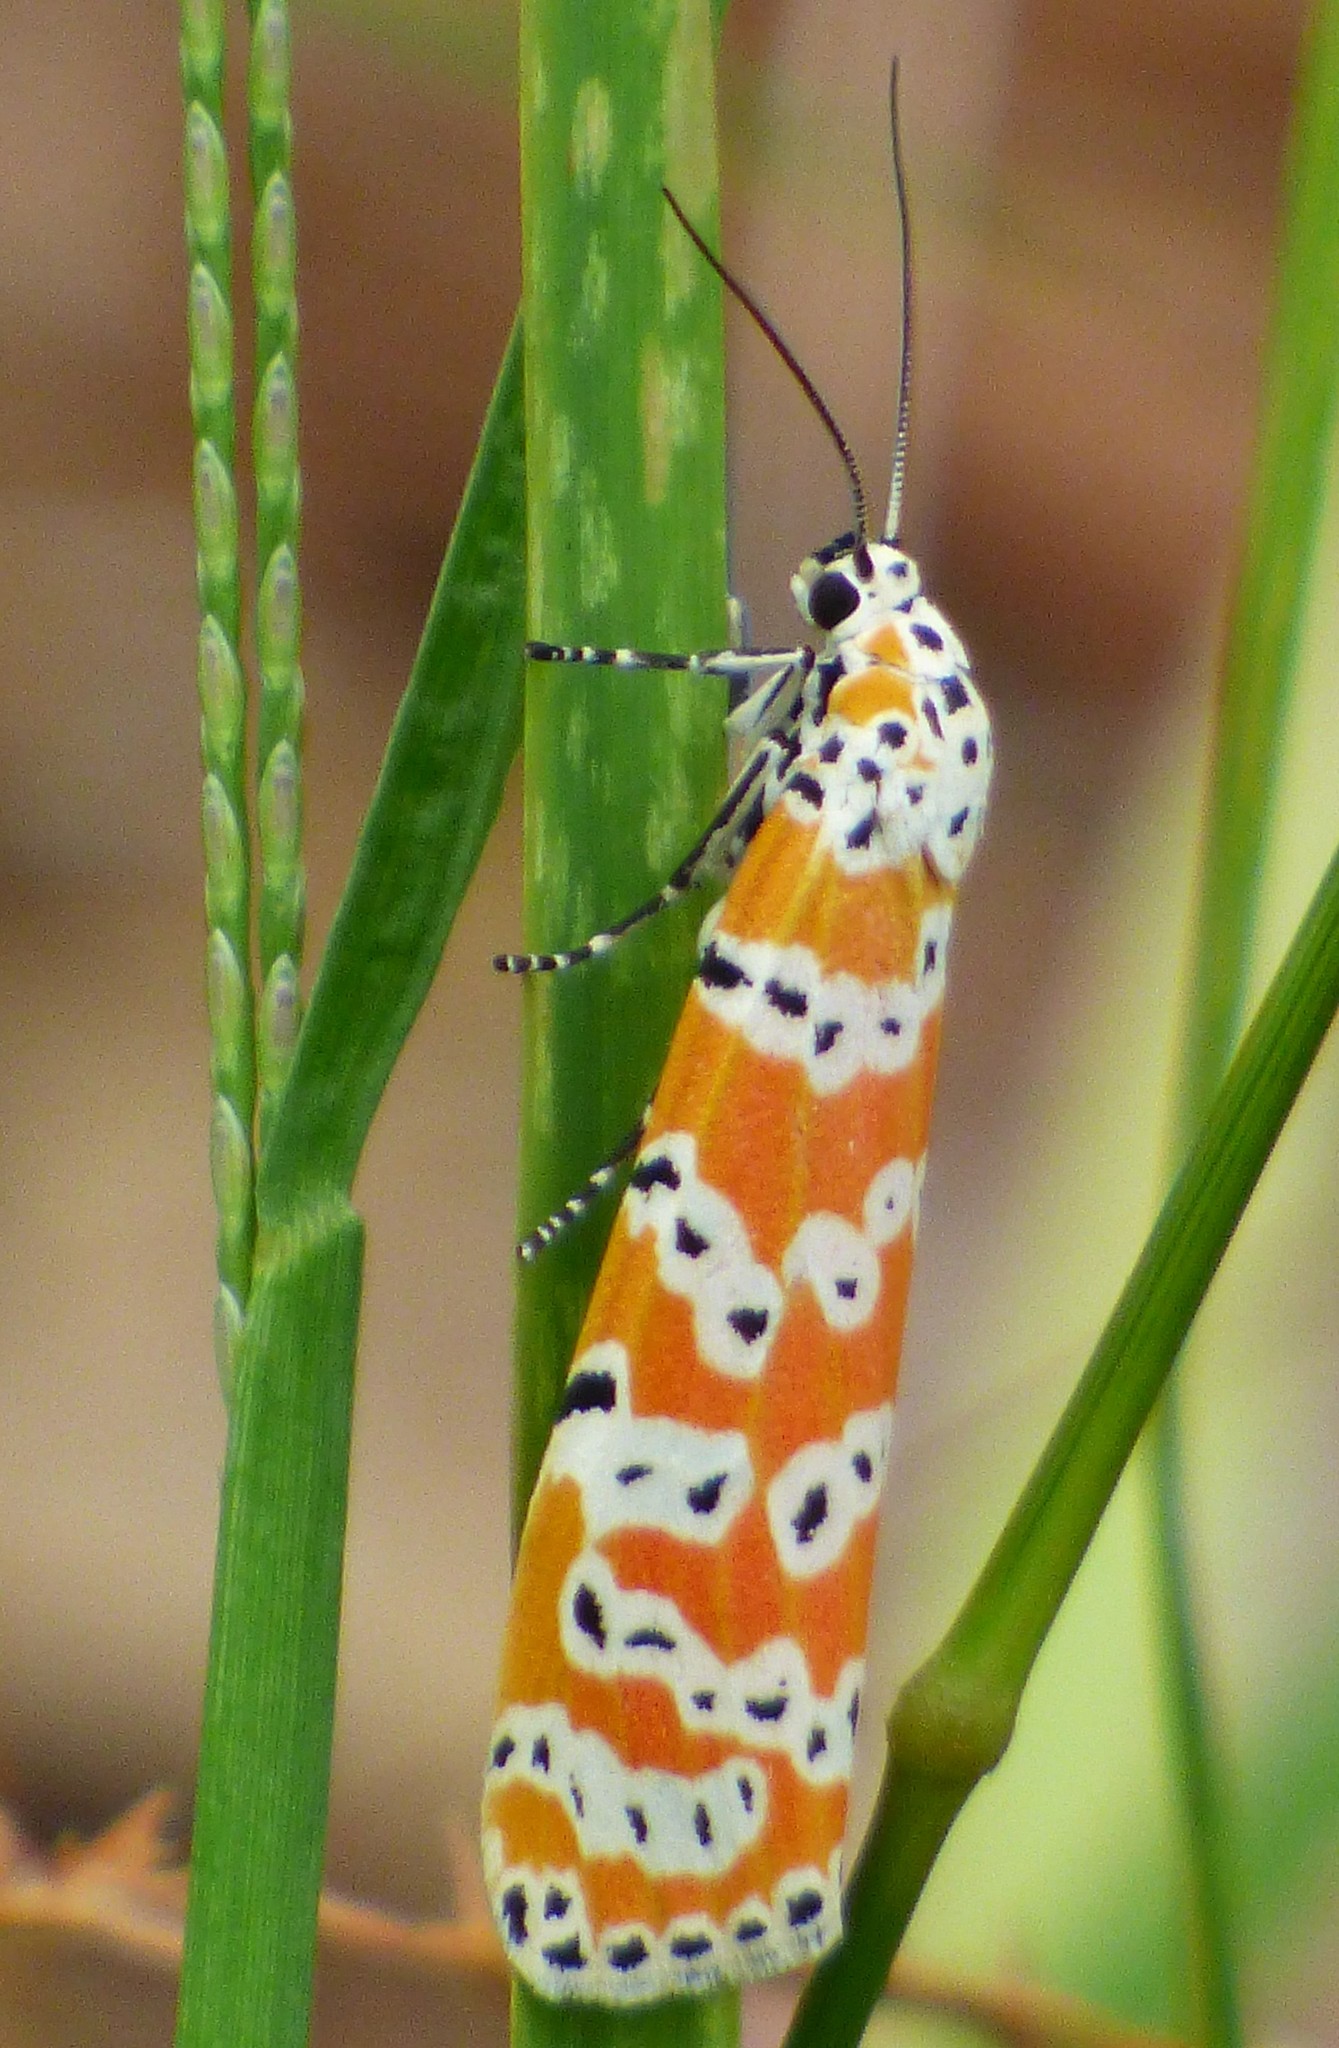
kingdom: Animalia
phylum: Arthropoda
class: Insecta
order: Lepidoptera
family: Erebidae
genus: Utetheisa
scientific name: Utetheisa ornatrix
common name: Beautiful utetheisa
